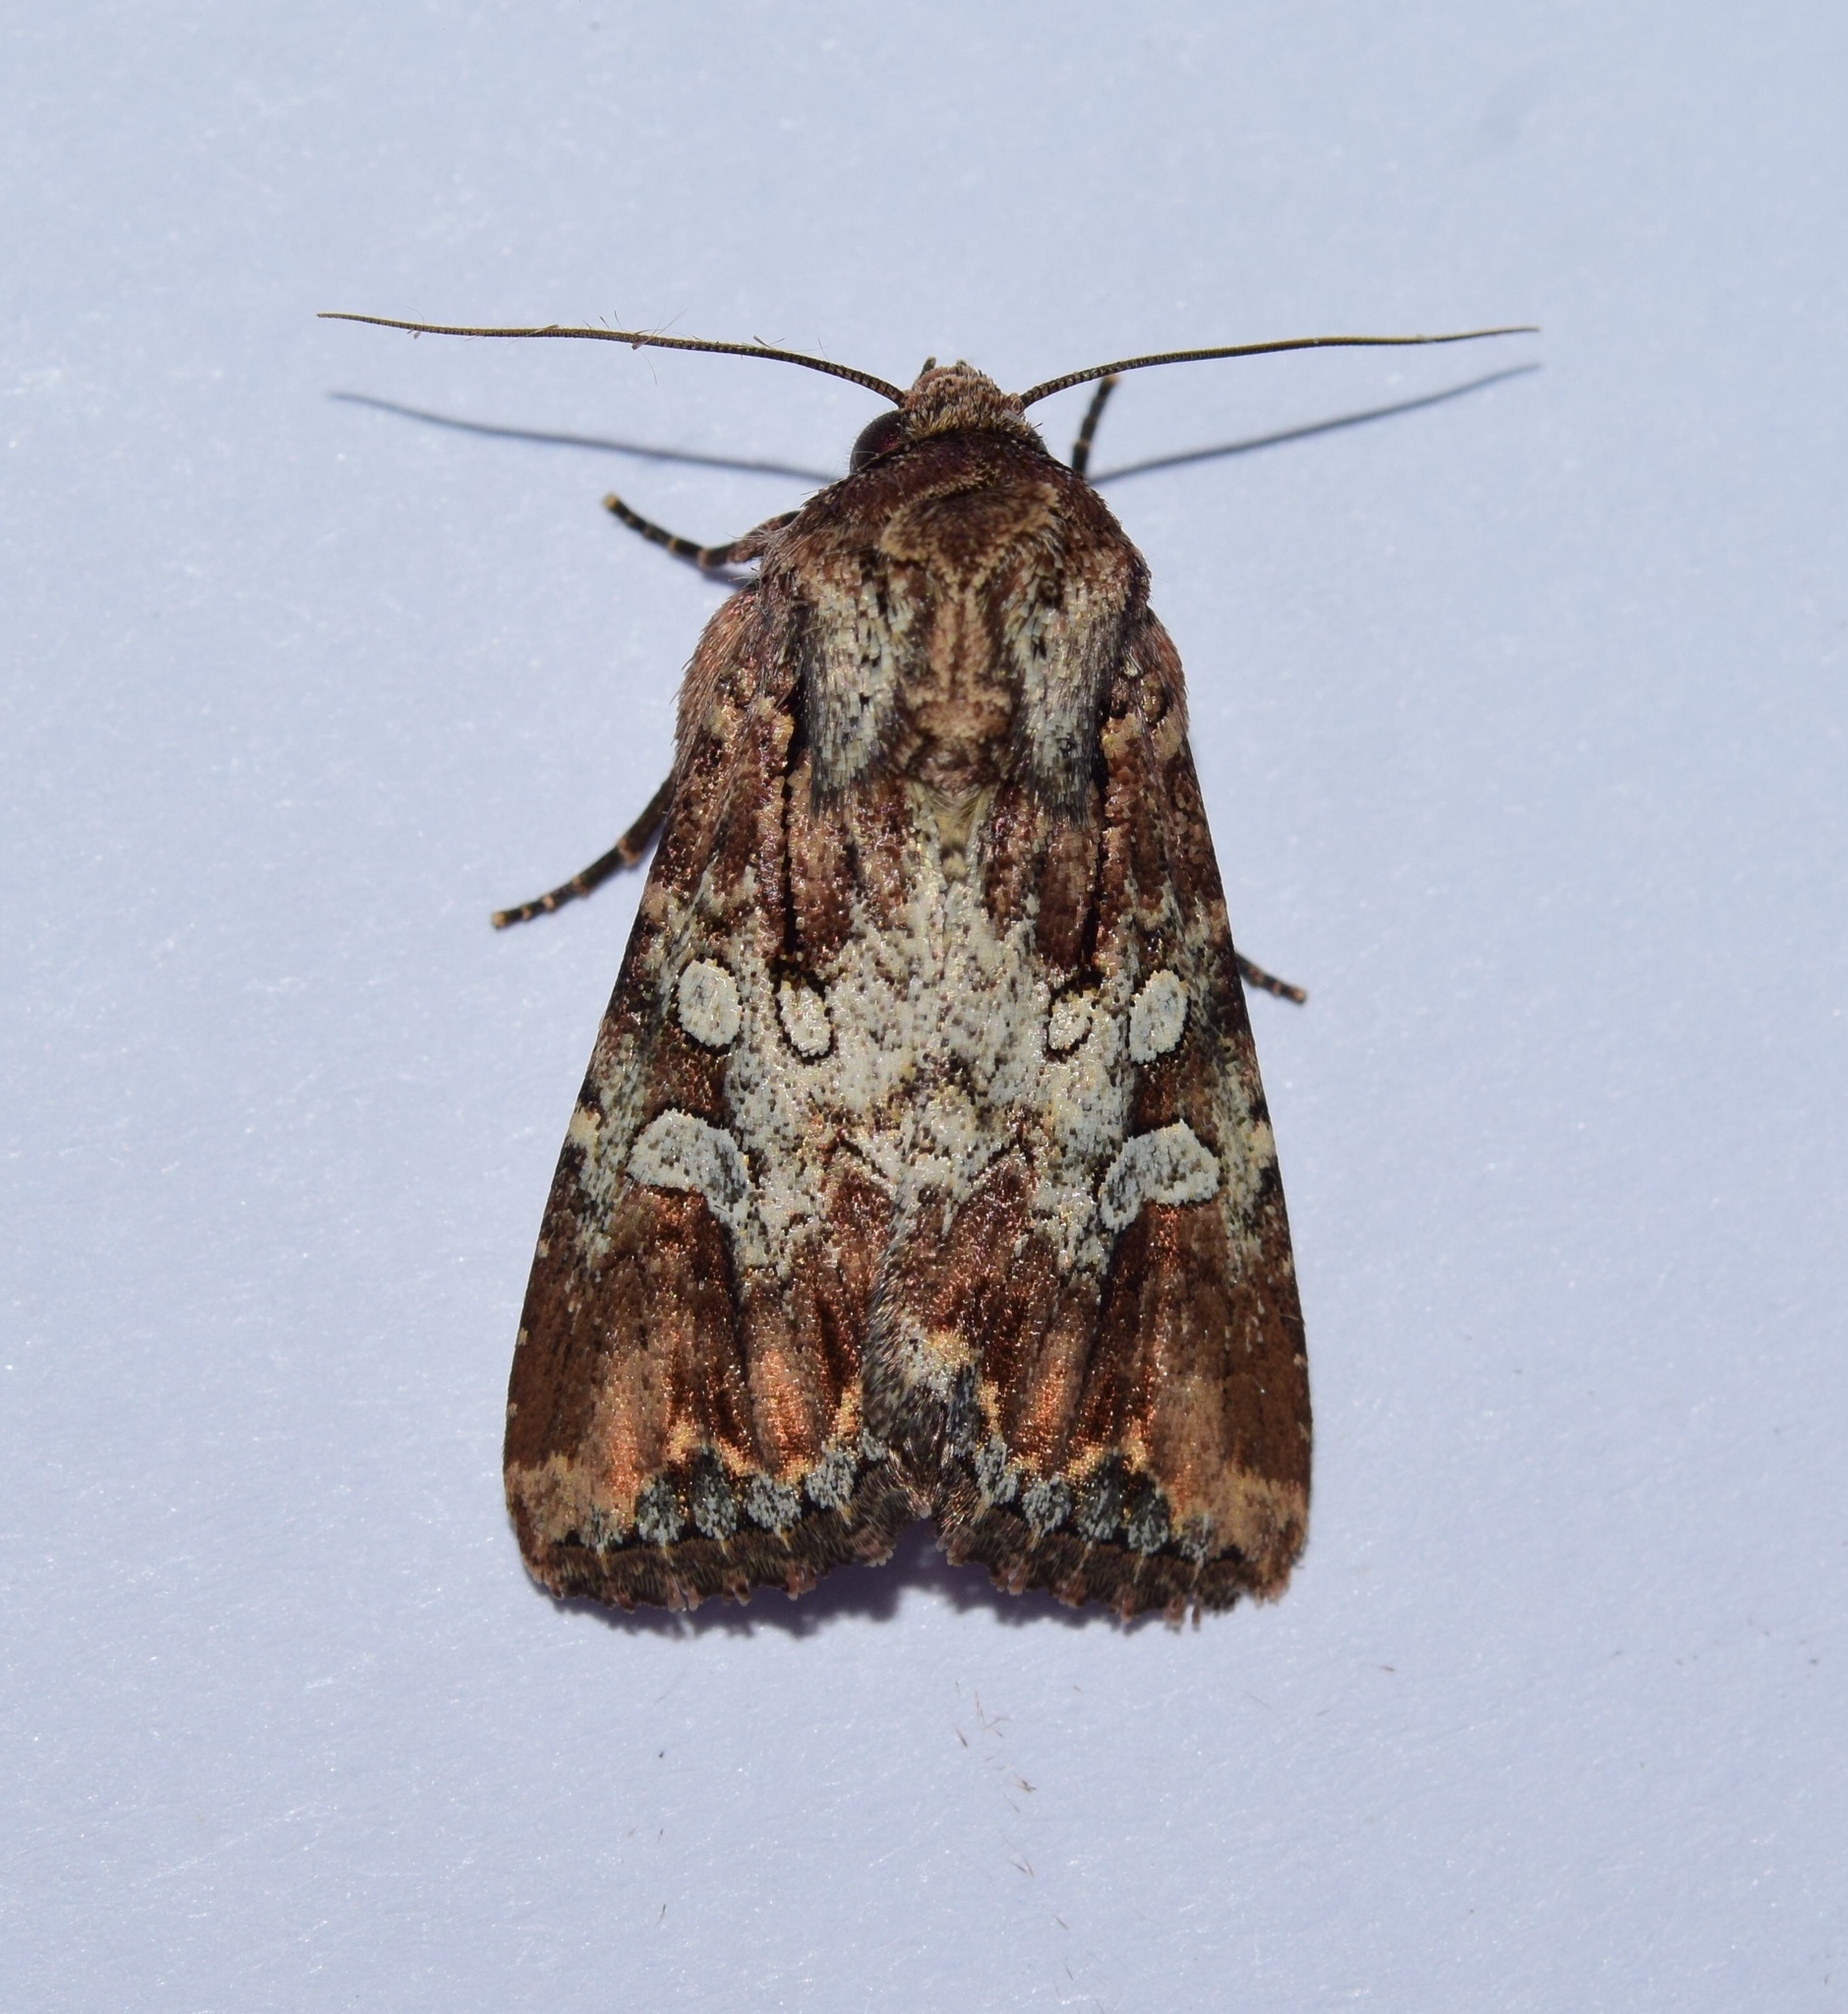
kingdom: Animalia
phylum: Arthropoda
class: Insecta
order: Lepidoptera
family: Noctuidae
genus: Omphalestra
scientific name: Omphalestra mesoglauca
